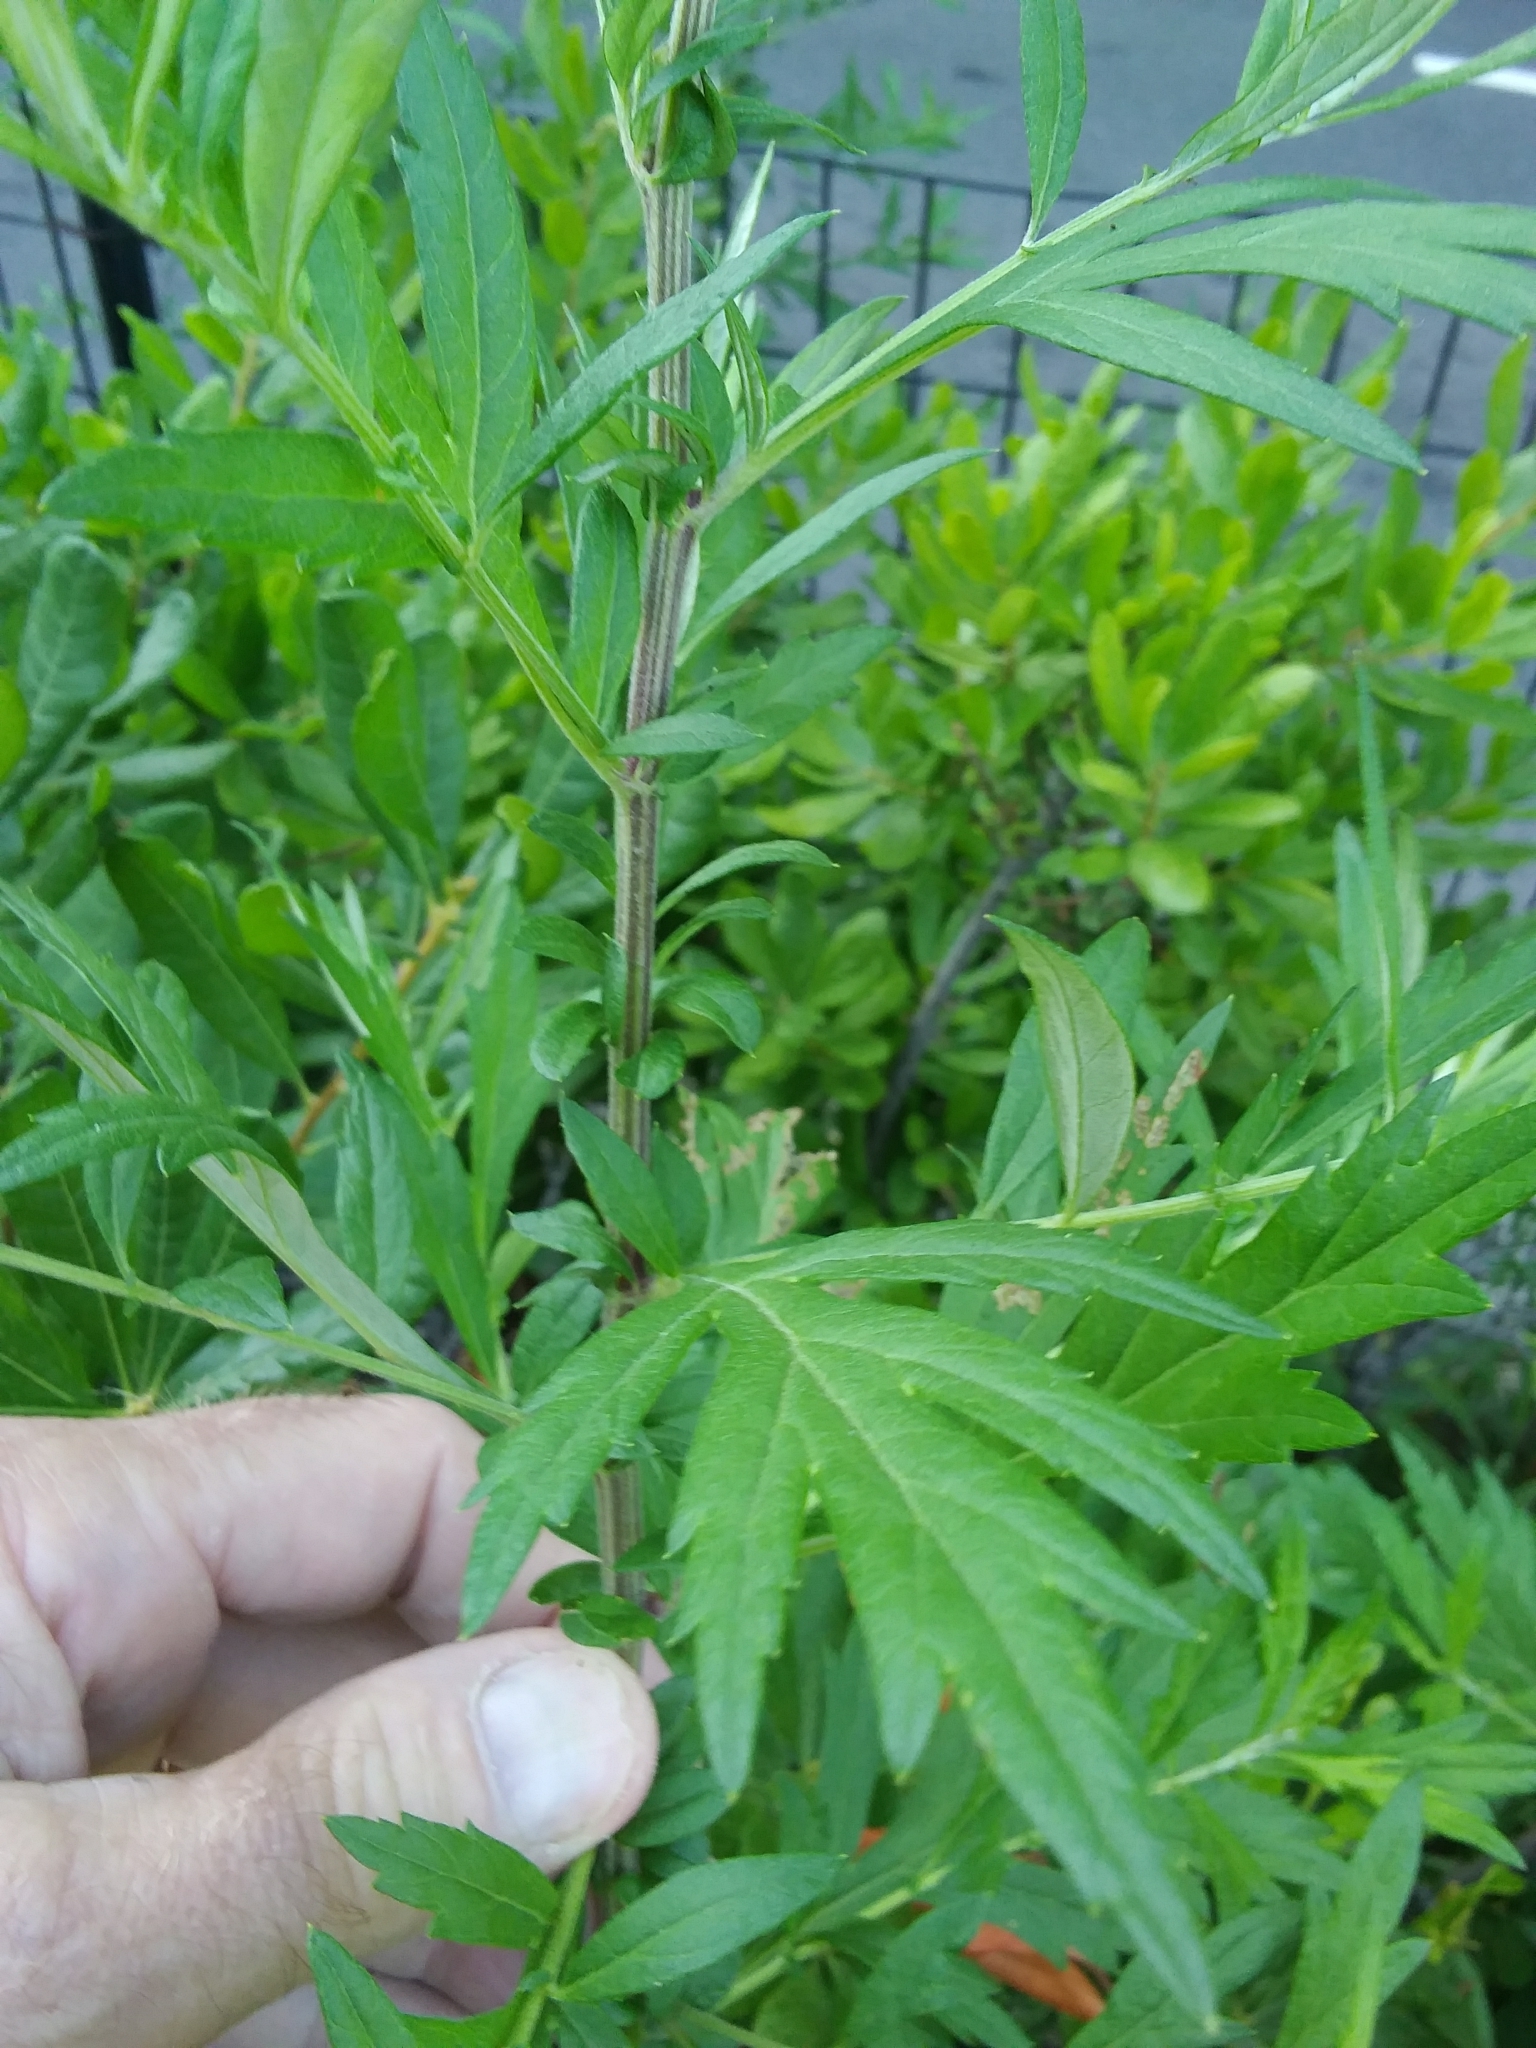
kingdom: Plantae
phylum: Tracheophyta
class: Magnoliopsida
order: Asterales
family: Asteraceae
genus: Artemisia
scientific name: Artemisia vulgaris
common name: Mugwort
